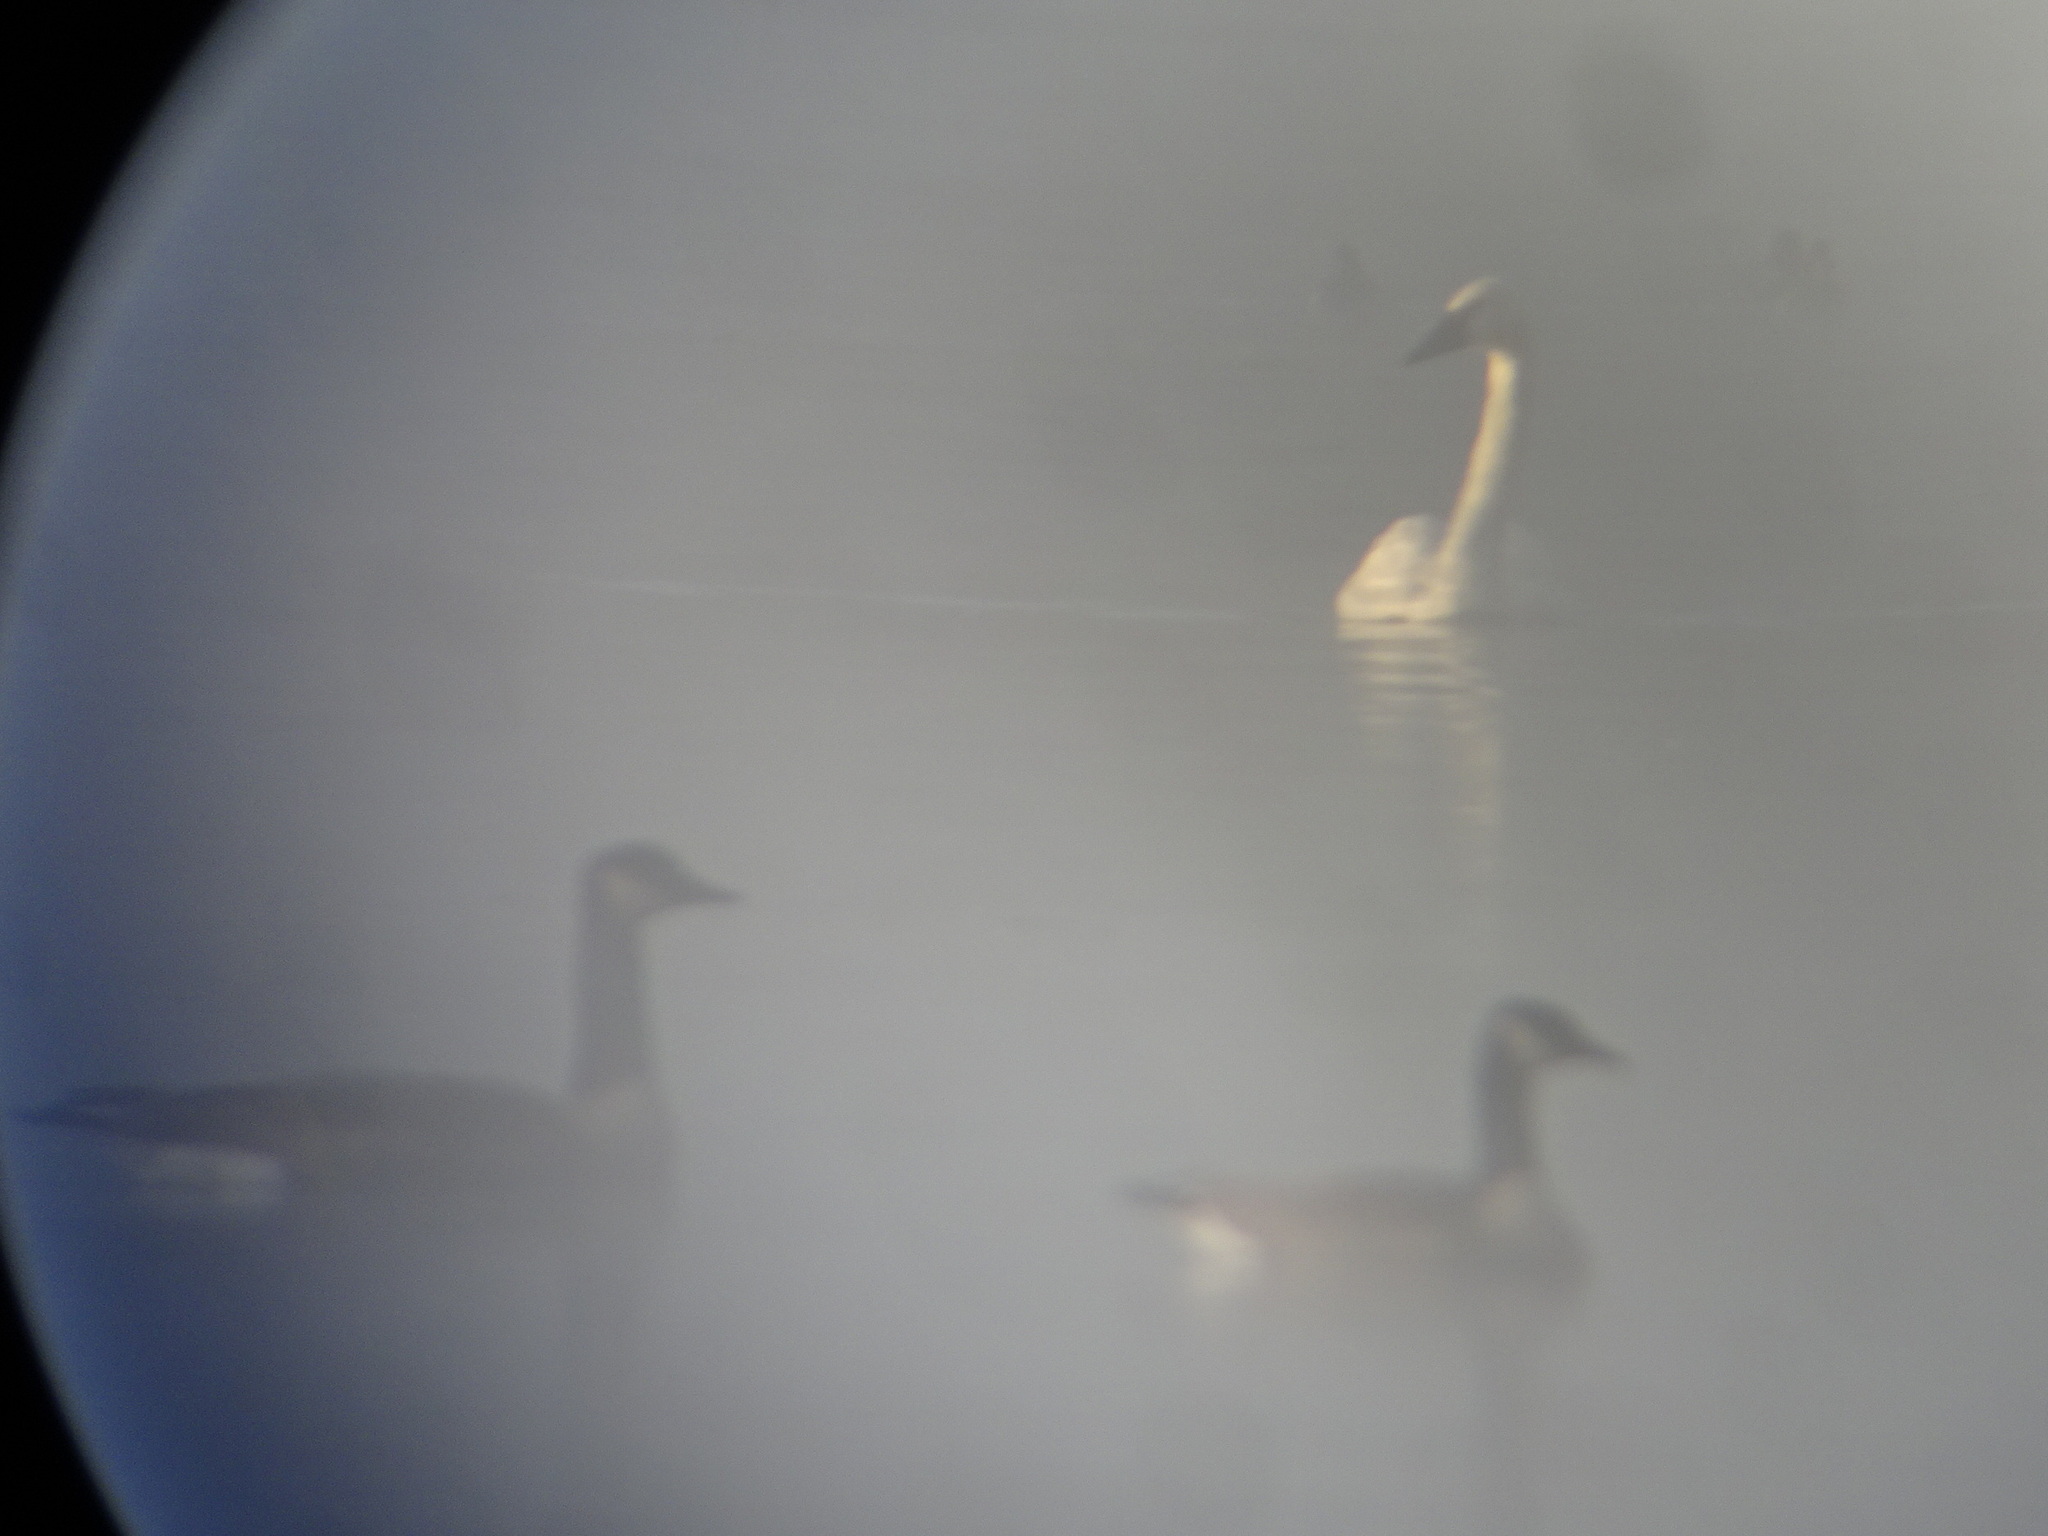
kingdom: Animalia
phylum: Chordata
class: Aves
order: Anseriformes
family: Anatidae
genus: Branta
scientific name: Branta canadensis
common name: Canada goose
